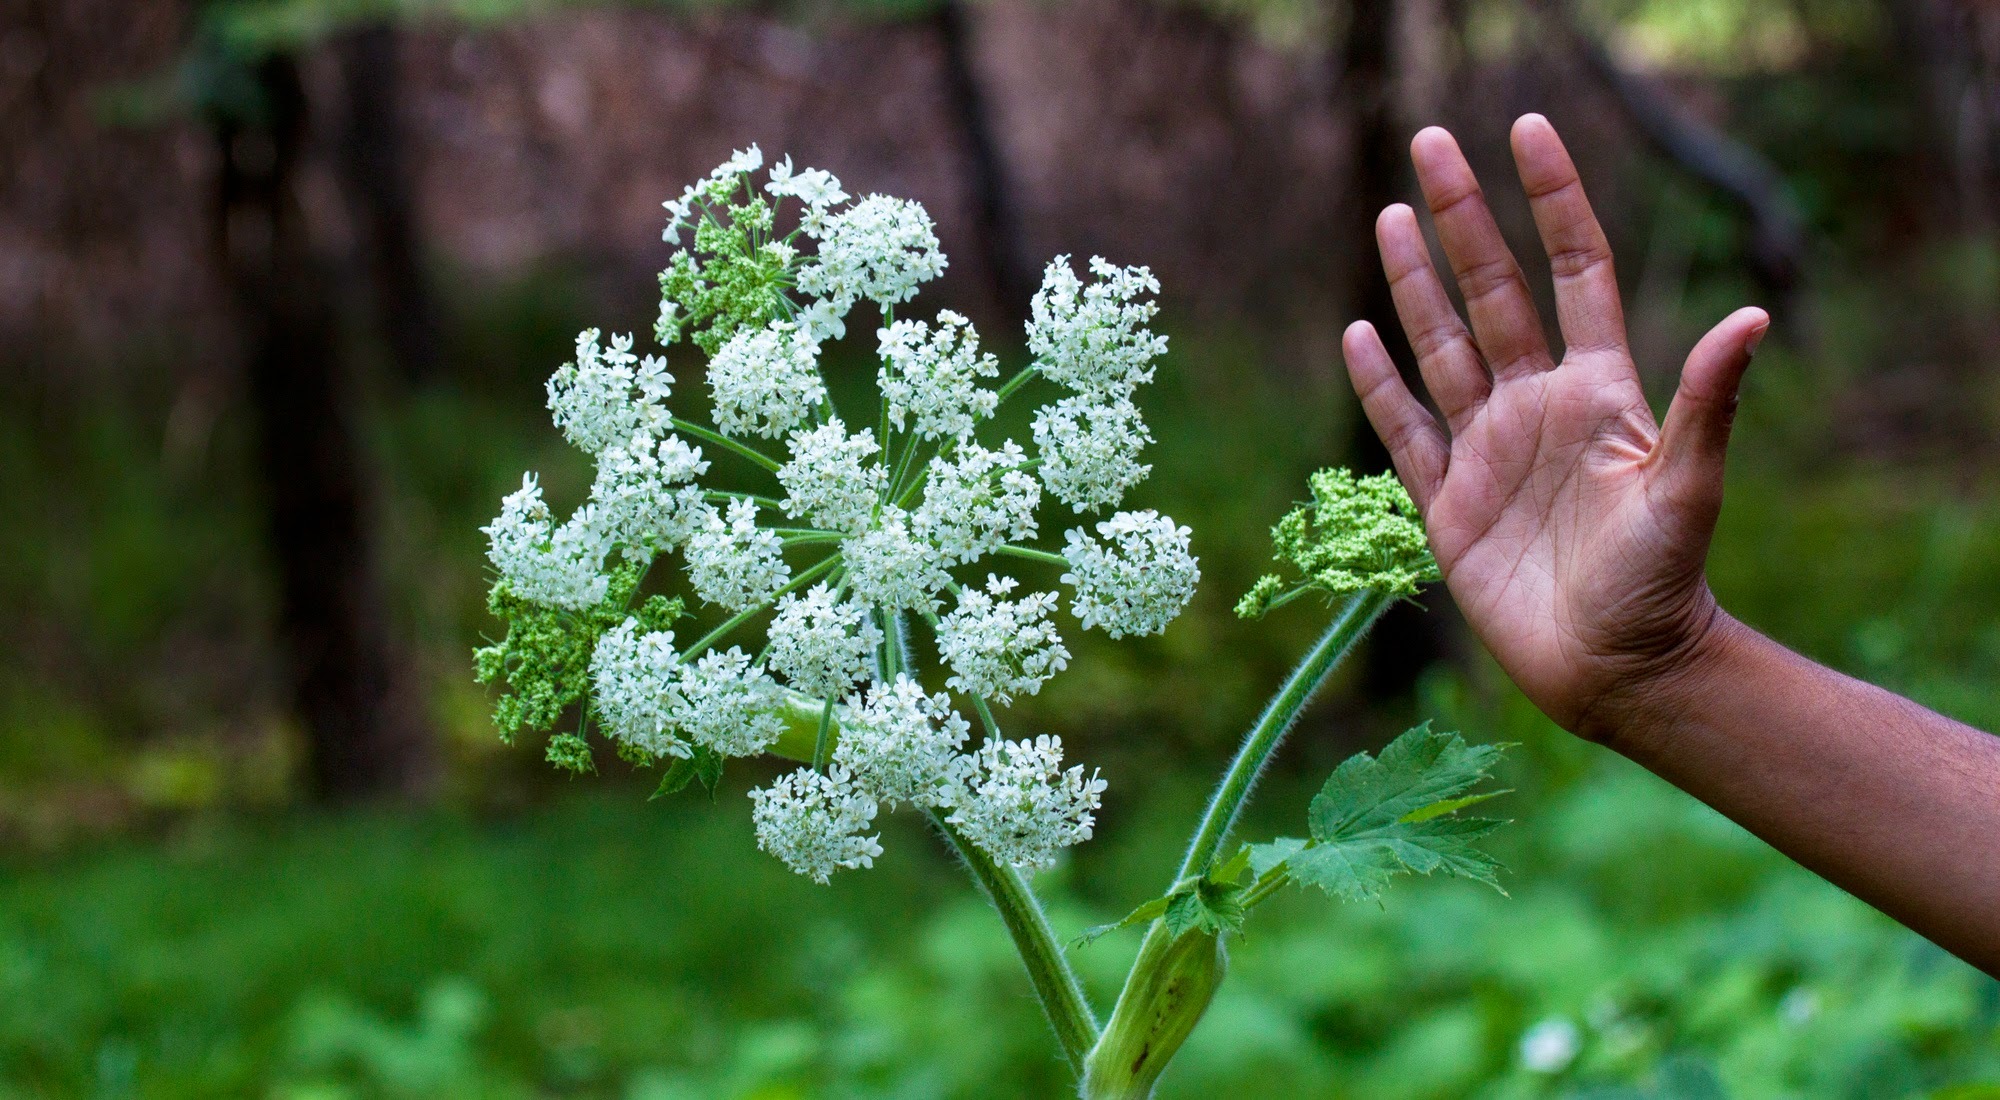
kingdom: Plantae
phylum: Tracheophyta
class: Magnoliopsida
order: Apiales
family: Apiaceae
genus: Heracleum
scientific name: Heracleum maximum
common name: American cow parsnip
